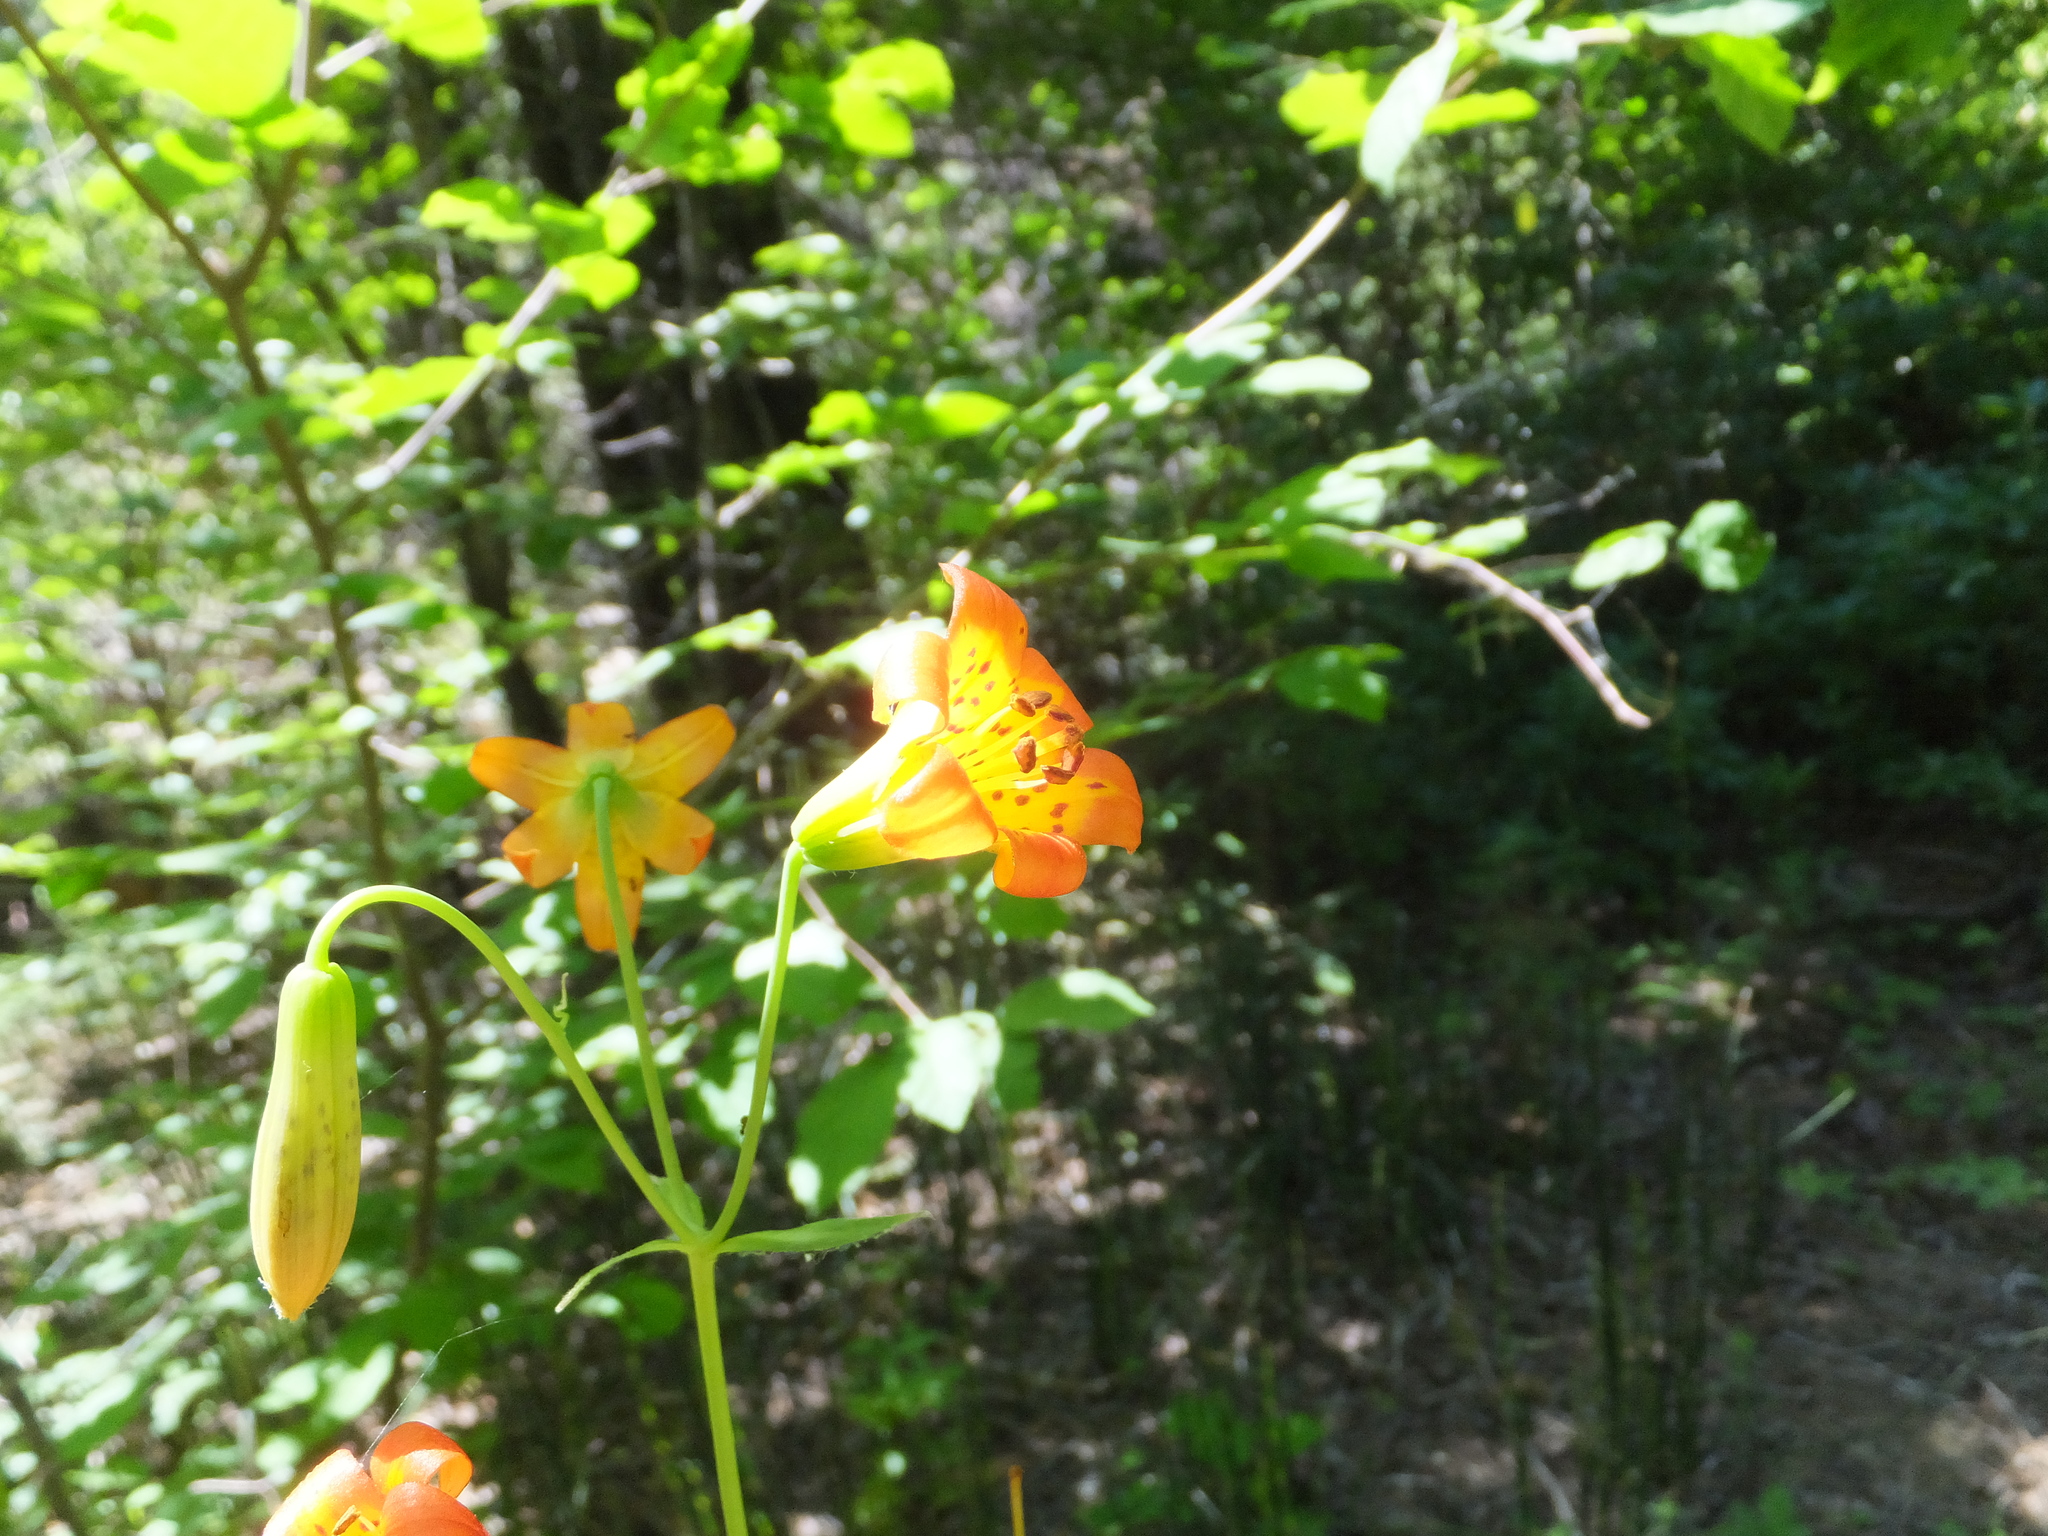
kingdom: Plantae
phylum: Tracheophyta
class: Liliopsida
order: Liliales
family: Liliaceae
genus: Lilium
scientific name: Lilium parvum
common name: Alpine lily
